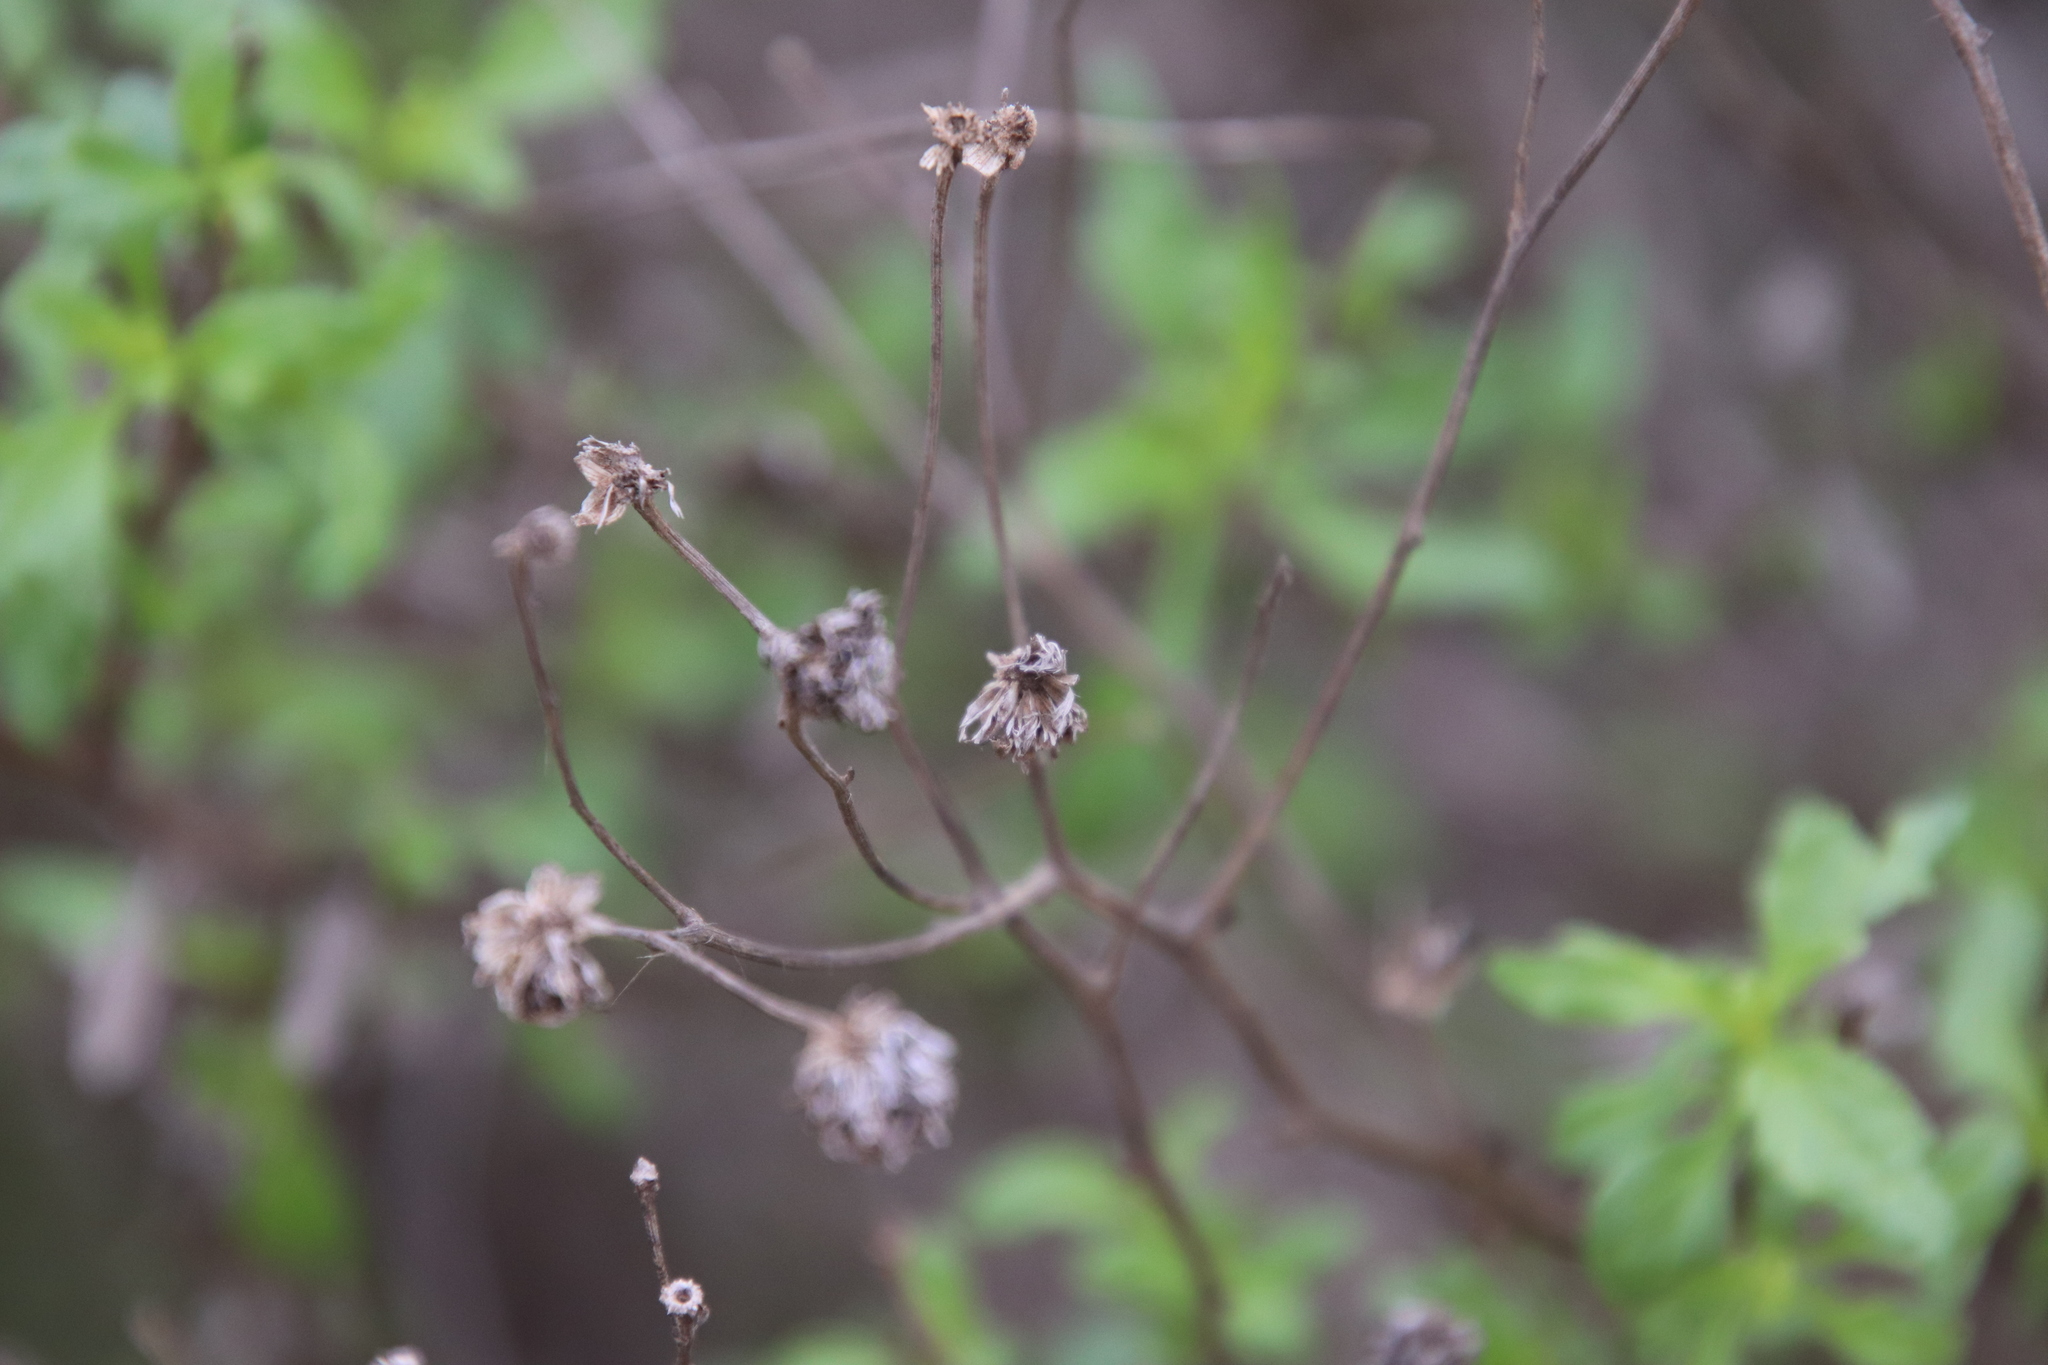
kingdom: Plantae
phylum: Tracheophyta
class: Magnoliopsida
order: Asterales
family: Asteraceae
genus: Bahiopsis
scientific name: Bahiopsis laciniata
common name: San diego county viguiera
